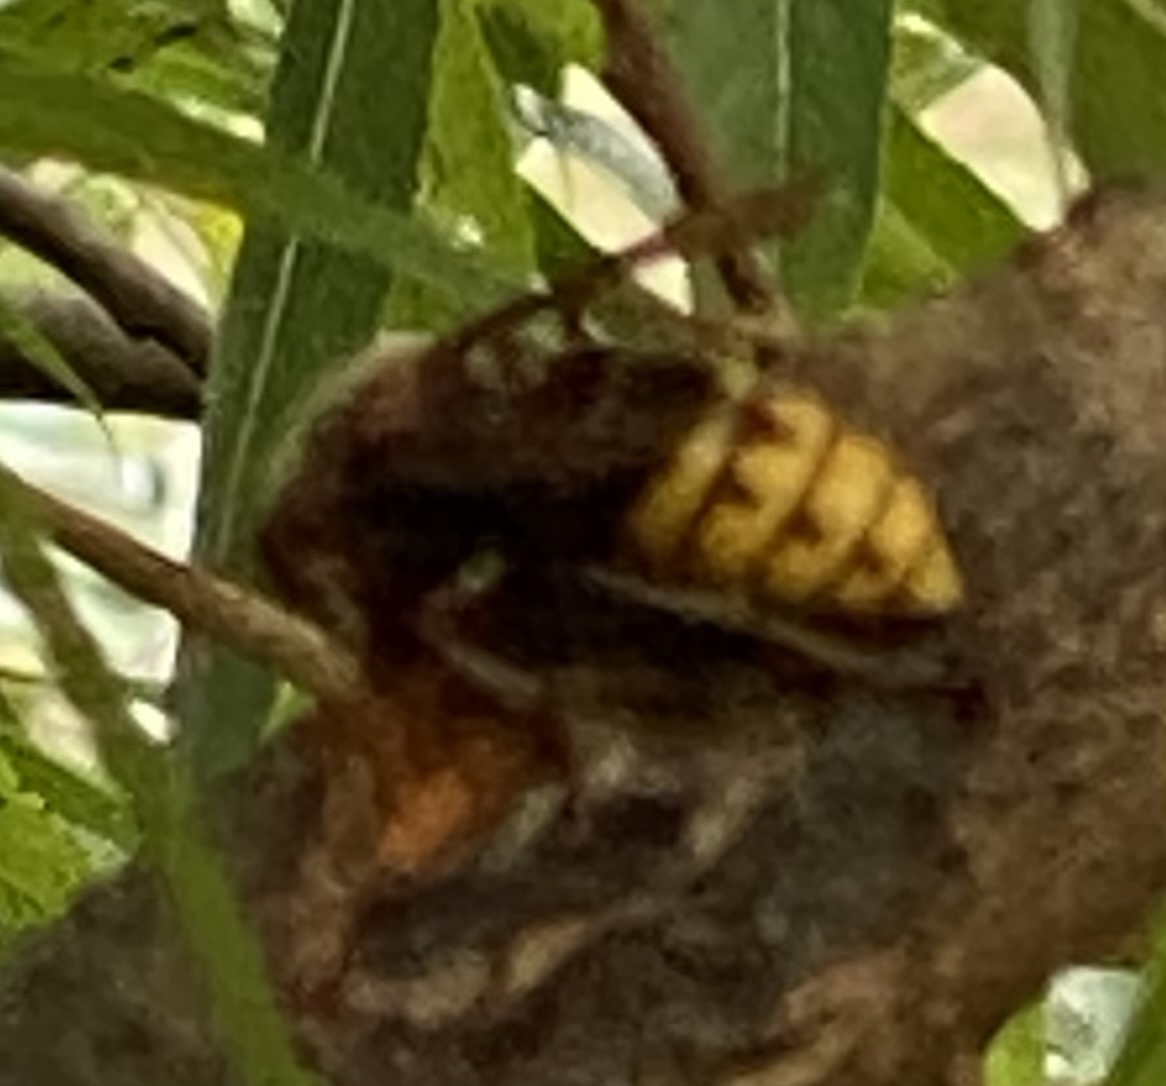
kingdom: Animalia
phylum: Arthropoda
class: Insecta
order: Hymenoptera
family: Vespidae
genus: Vespa
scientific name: Vespa crabro
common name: Hornet
